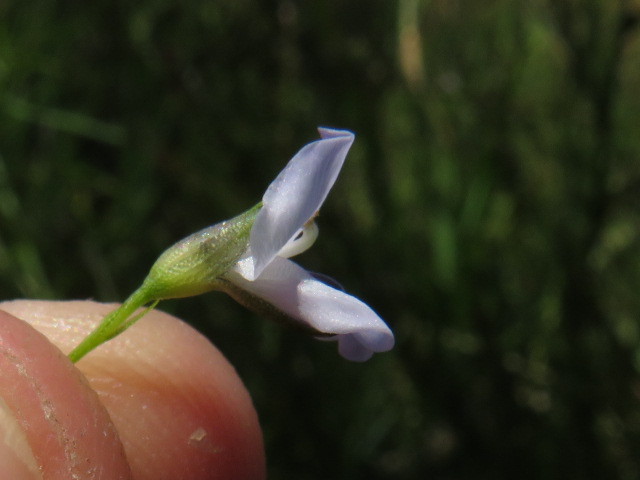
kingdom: Plantae
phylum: Tracheophyta
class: Magnoliopsida
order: Fabales
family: Fabaceae
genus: Psoralea
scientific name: Psoralea fascicularis
